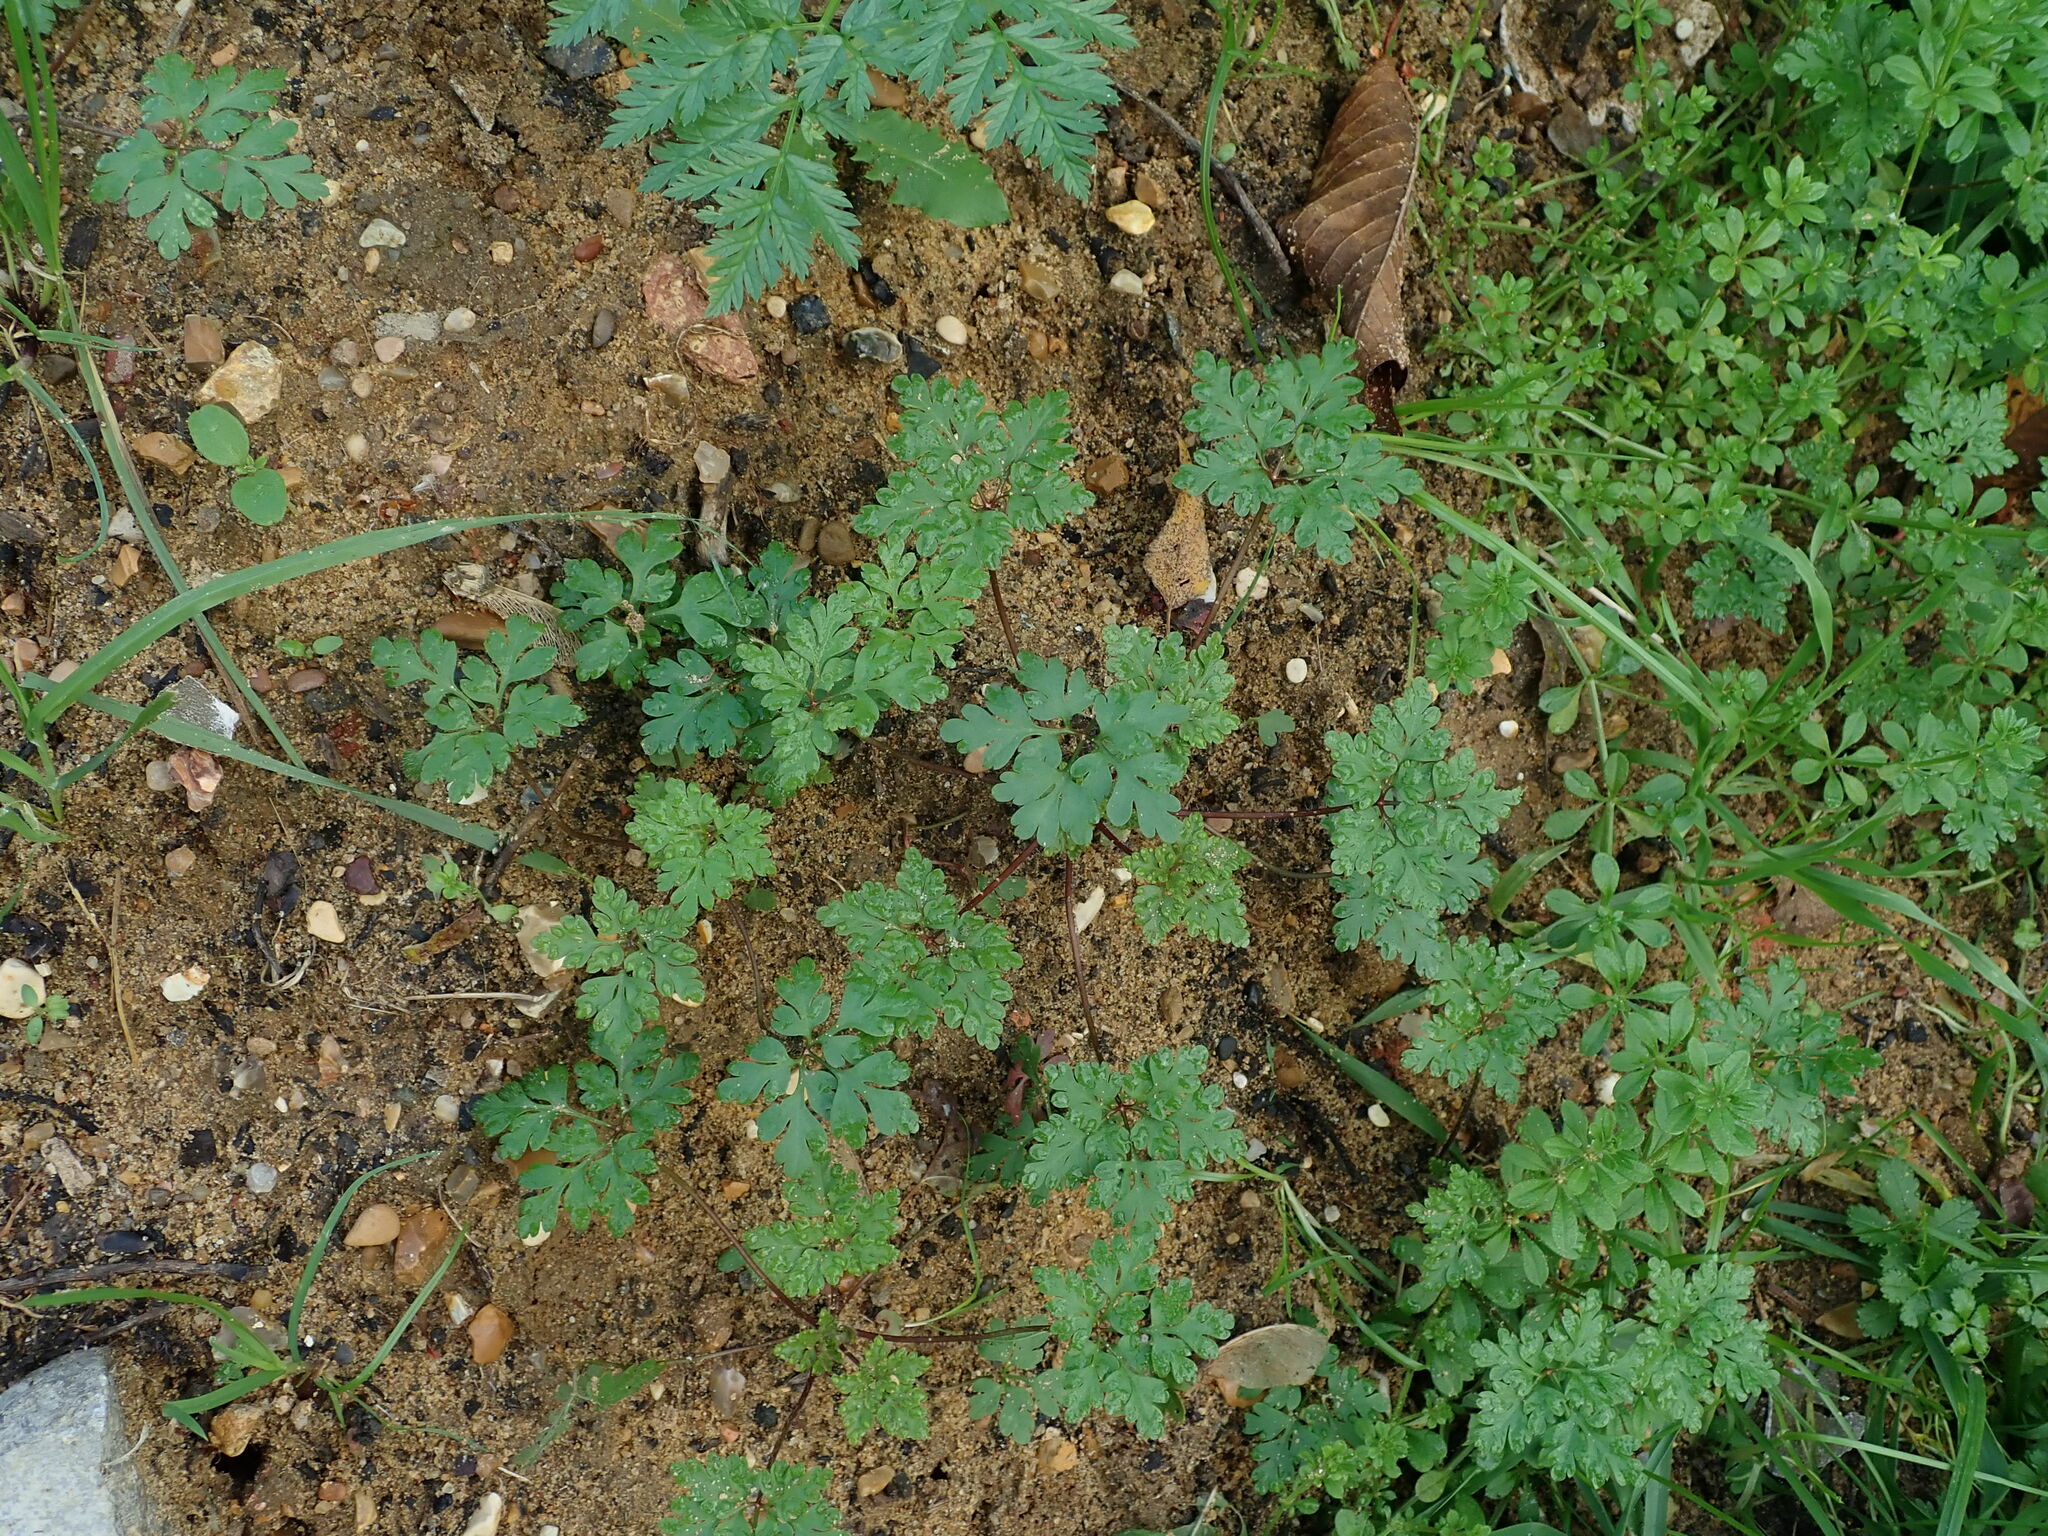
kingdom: Plantae
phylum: Tracheophyta
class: Magnoliopsida
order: Geraniales
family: Geraniaceae
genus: Geranium
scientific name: Geranium robertianum
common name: Herb-robert
